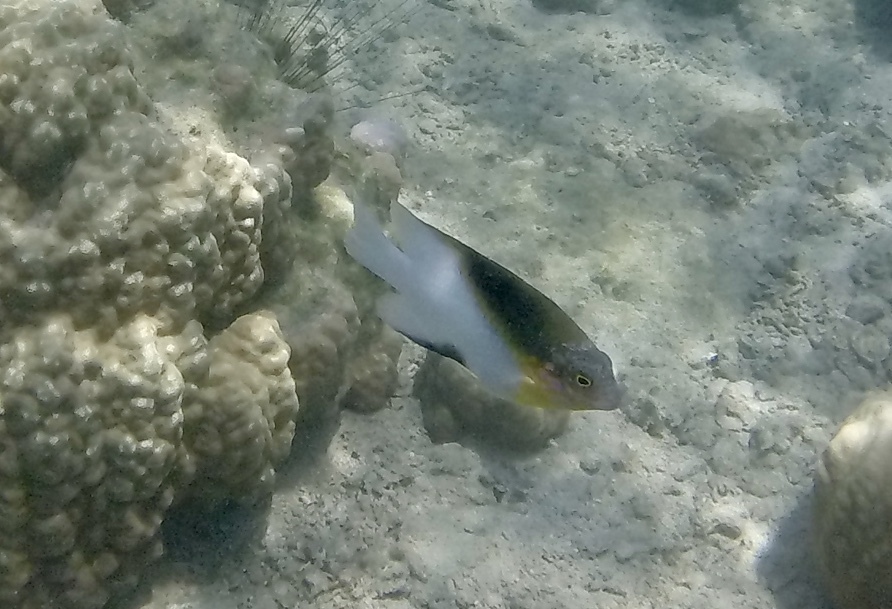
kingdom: Animalia
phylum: Chordata
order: Perciformes
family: Pomacentridae
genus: Dischistodus
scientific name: Dischistodus melanotus
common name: Black-vent damsel
